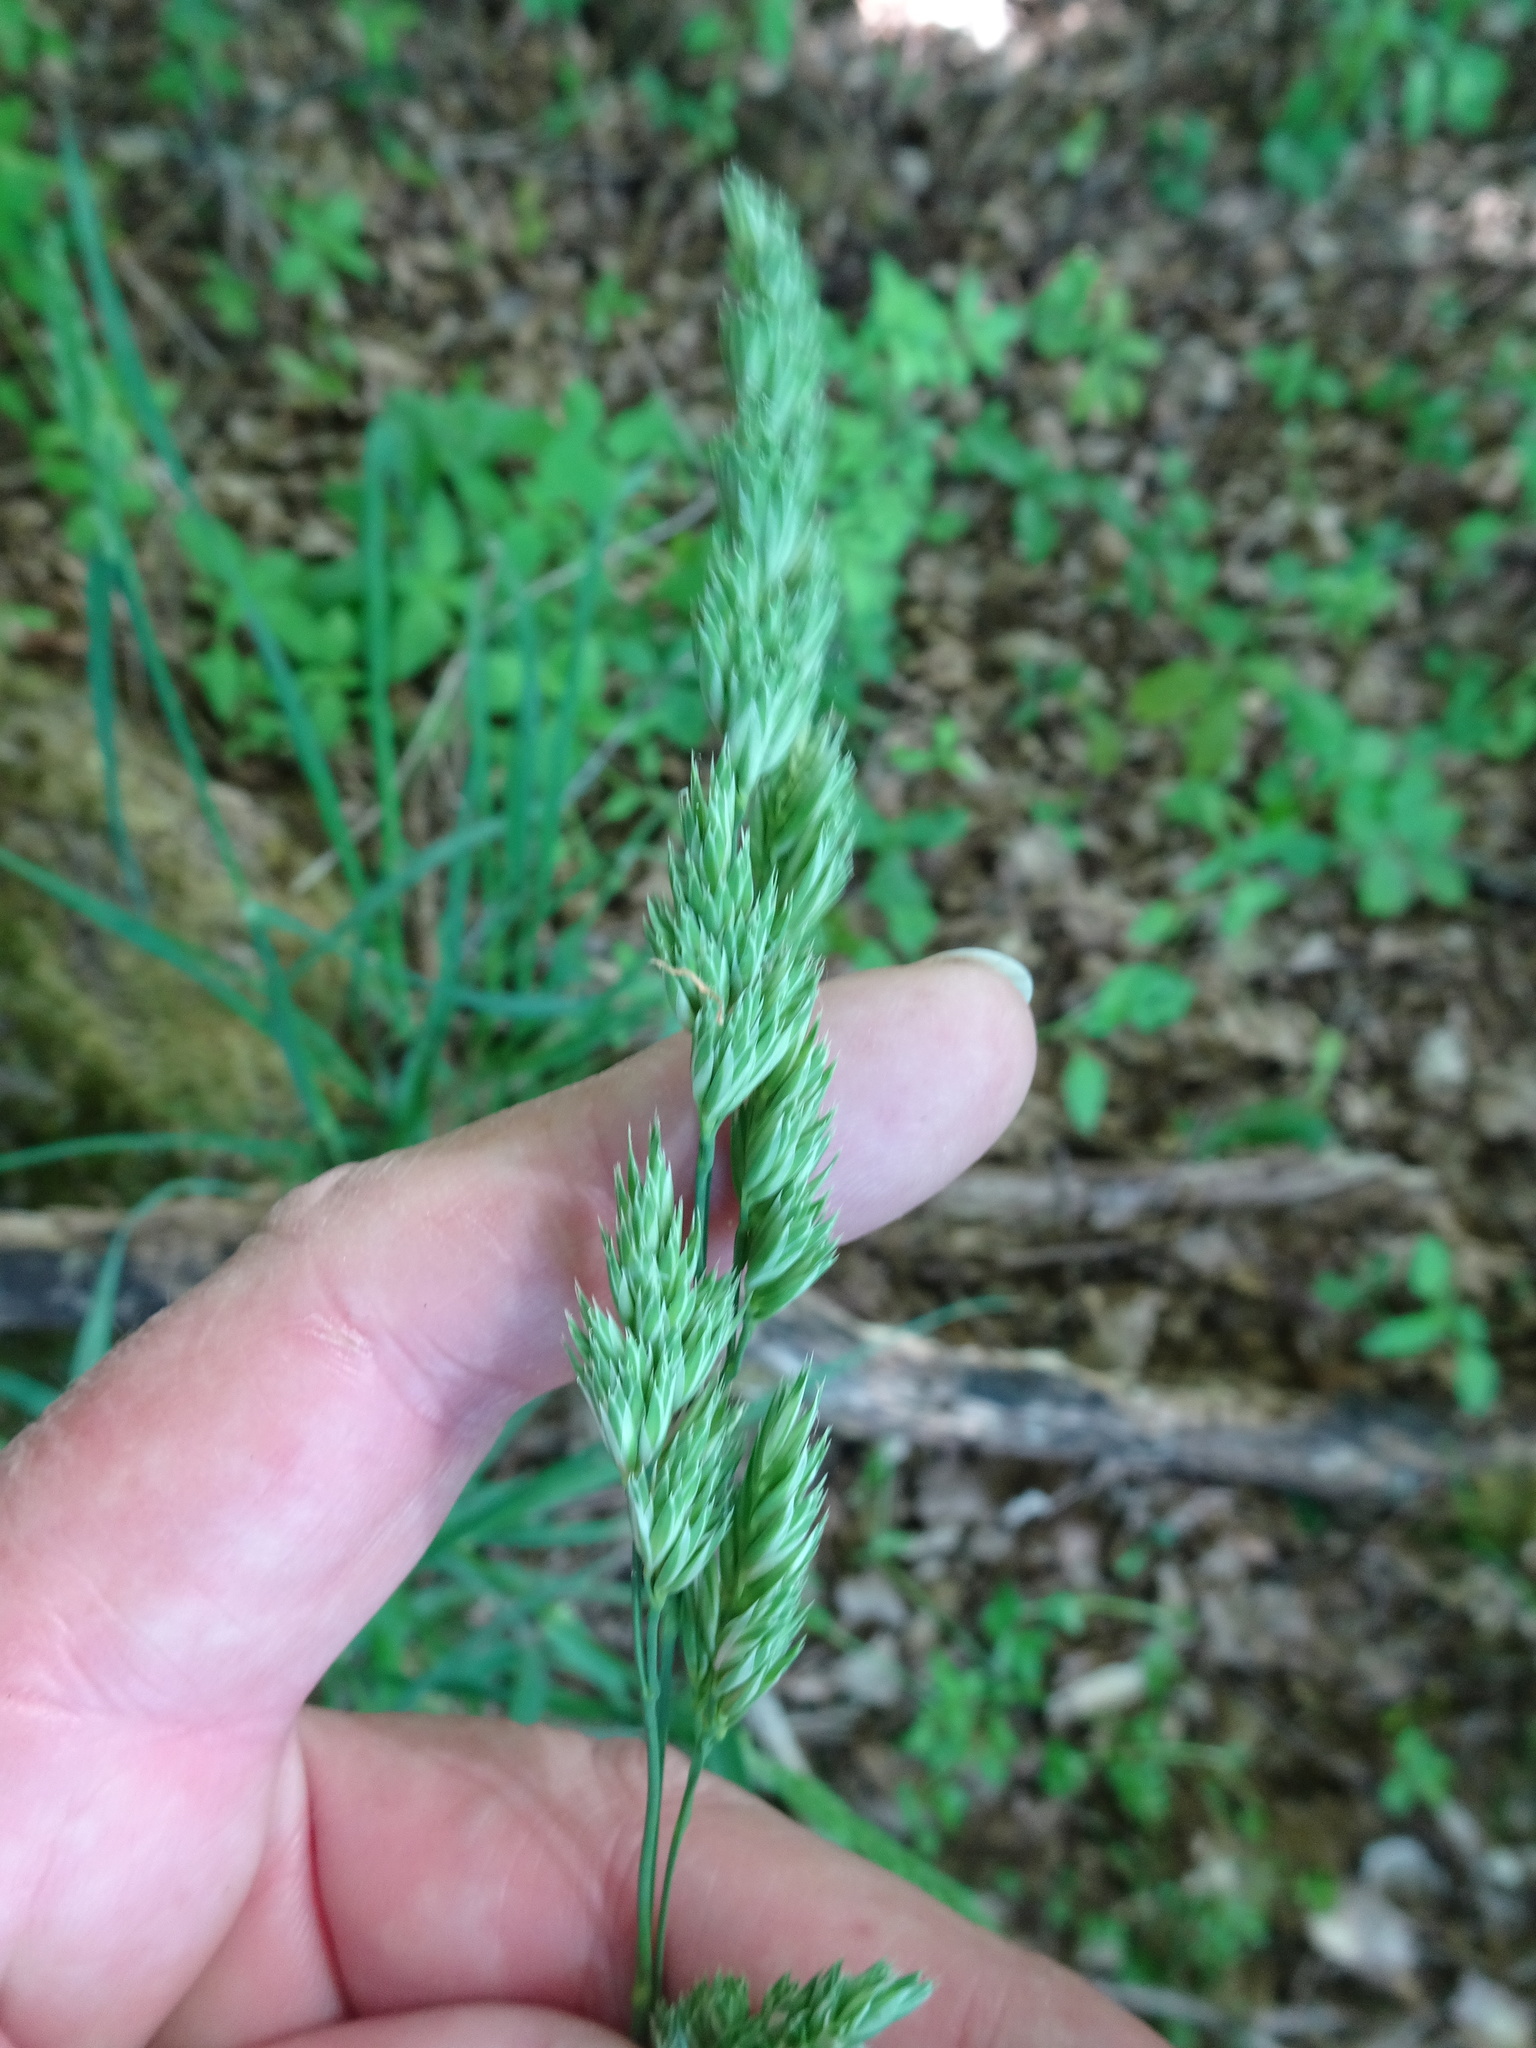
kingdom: Plantae
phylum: Tracheophyta
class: Liliopsida
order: Poales
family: Poaceae
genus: Dactylis
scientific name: Dactylis glomerata
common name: Orchardgrass
